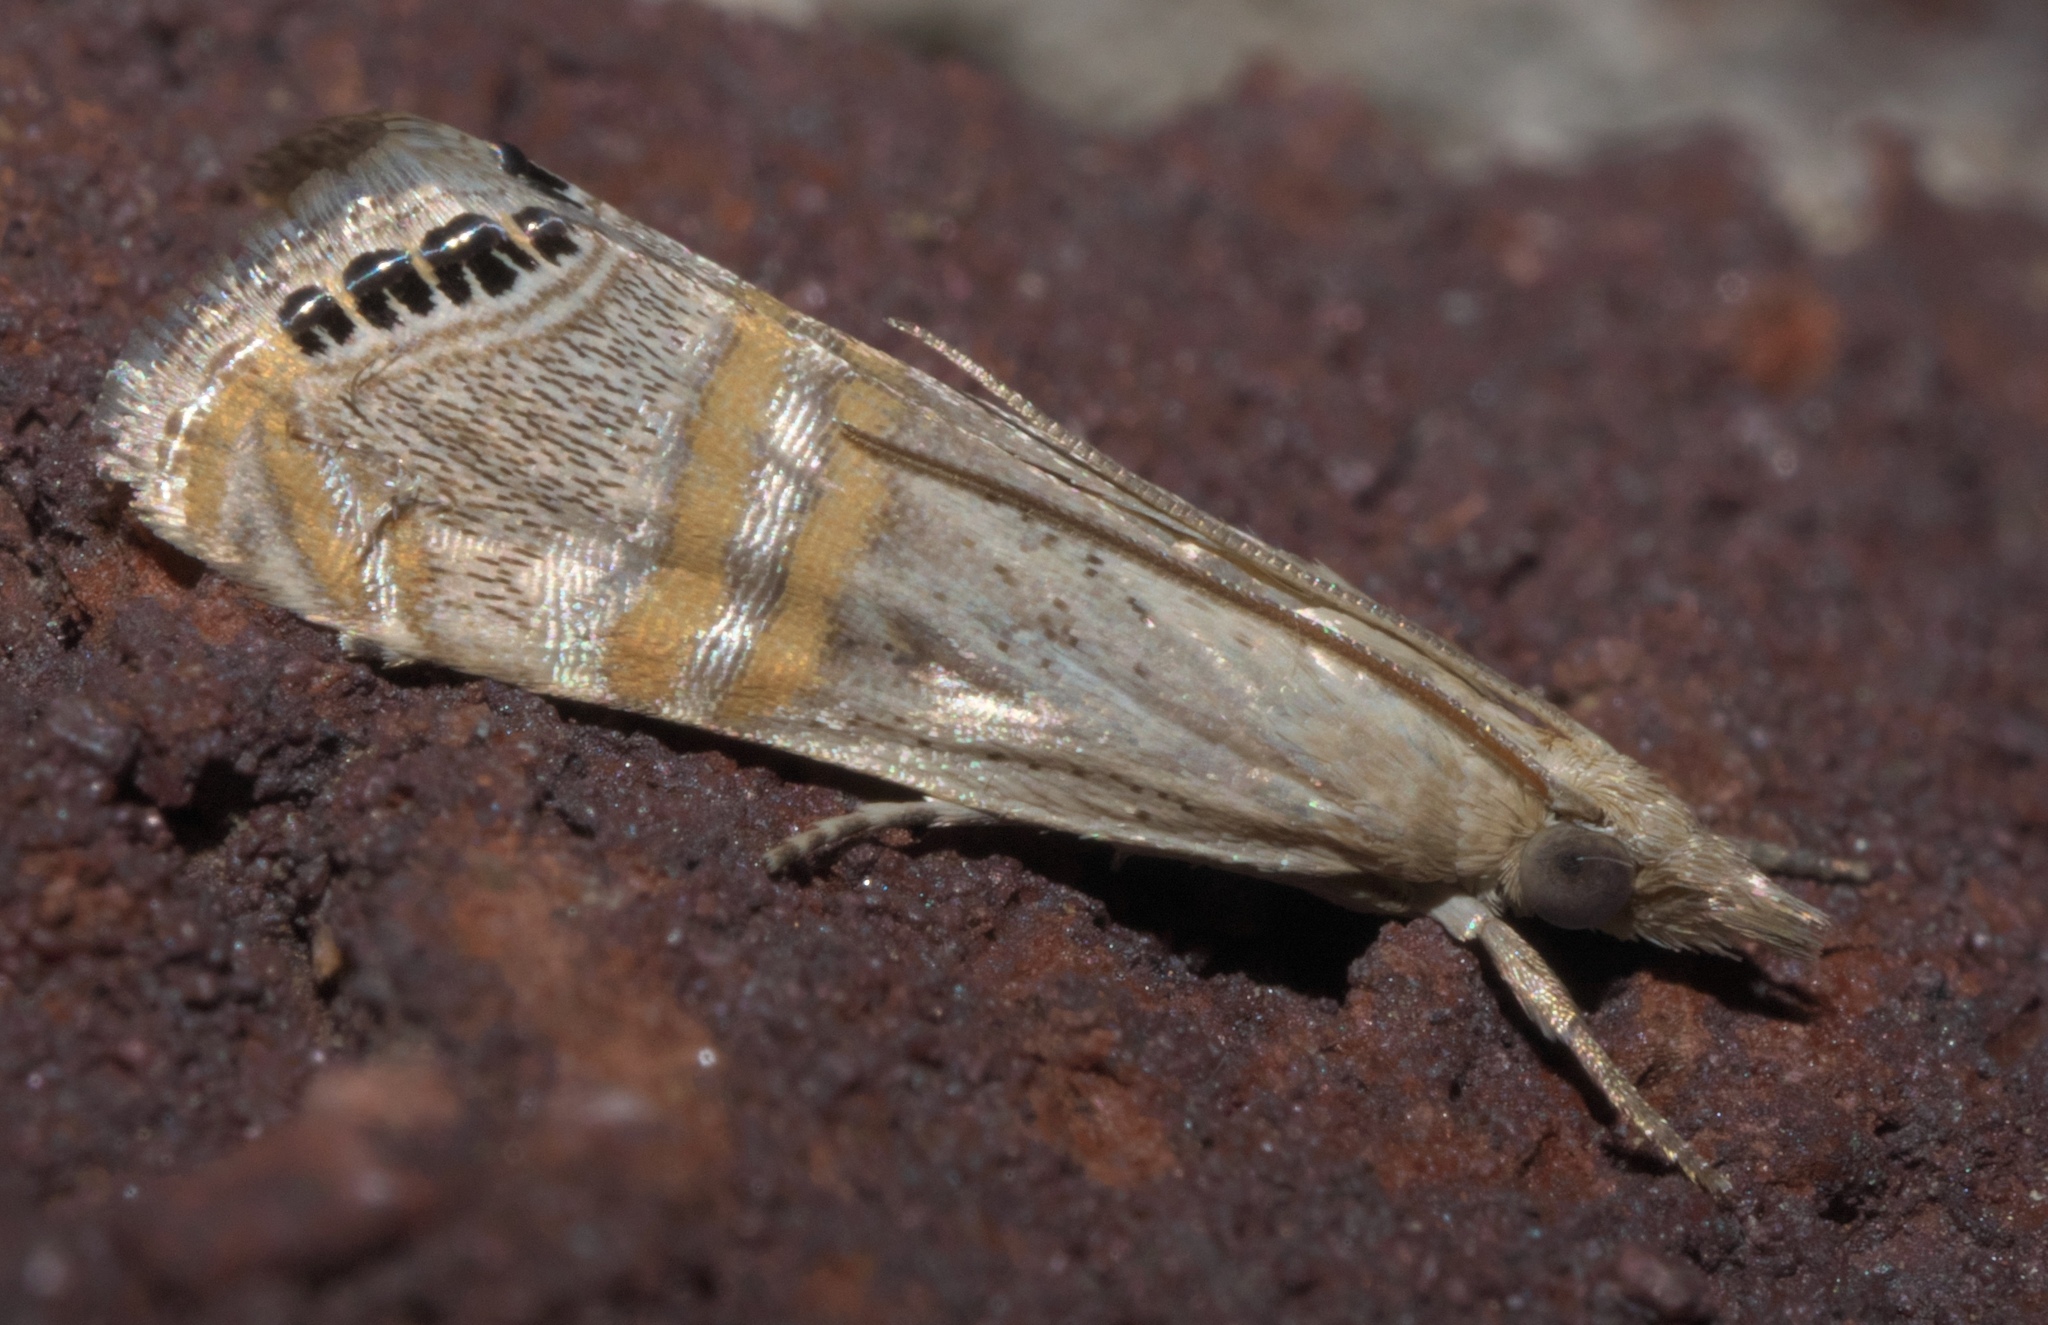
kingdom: Animalia
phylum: Arthropoda
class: Insecta
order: Lepidoptera
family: Crambidae
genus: Euchromius
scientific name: Euchromius ocellea
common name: Necklace veneer moth
